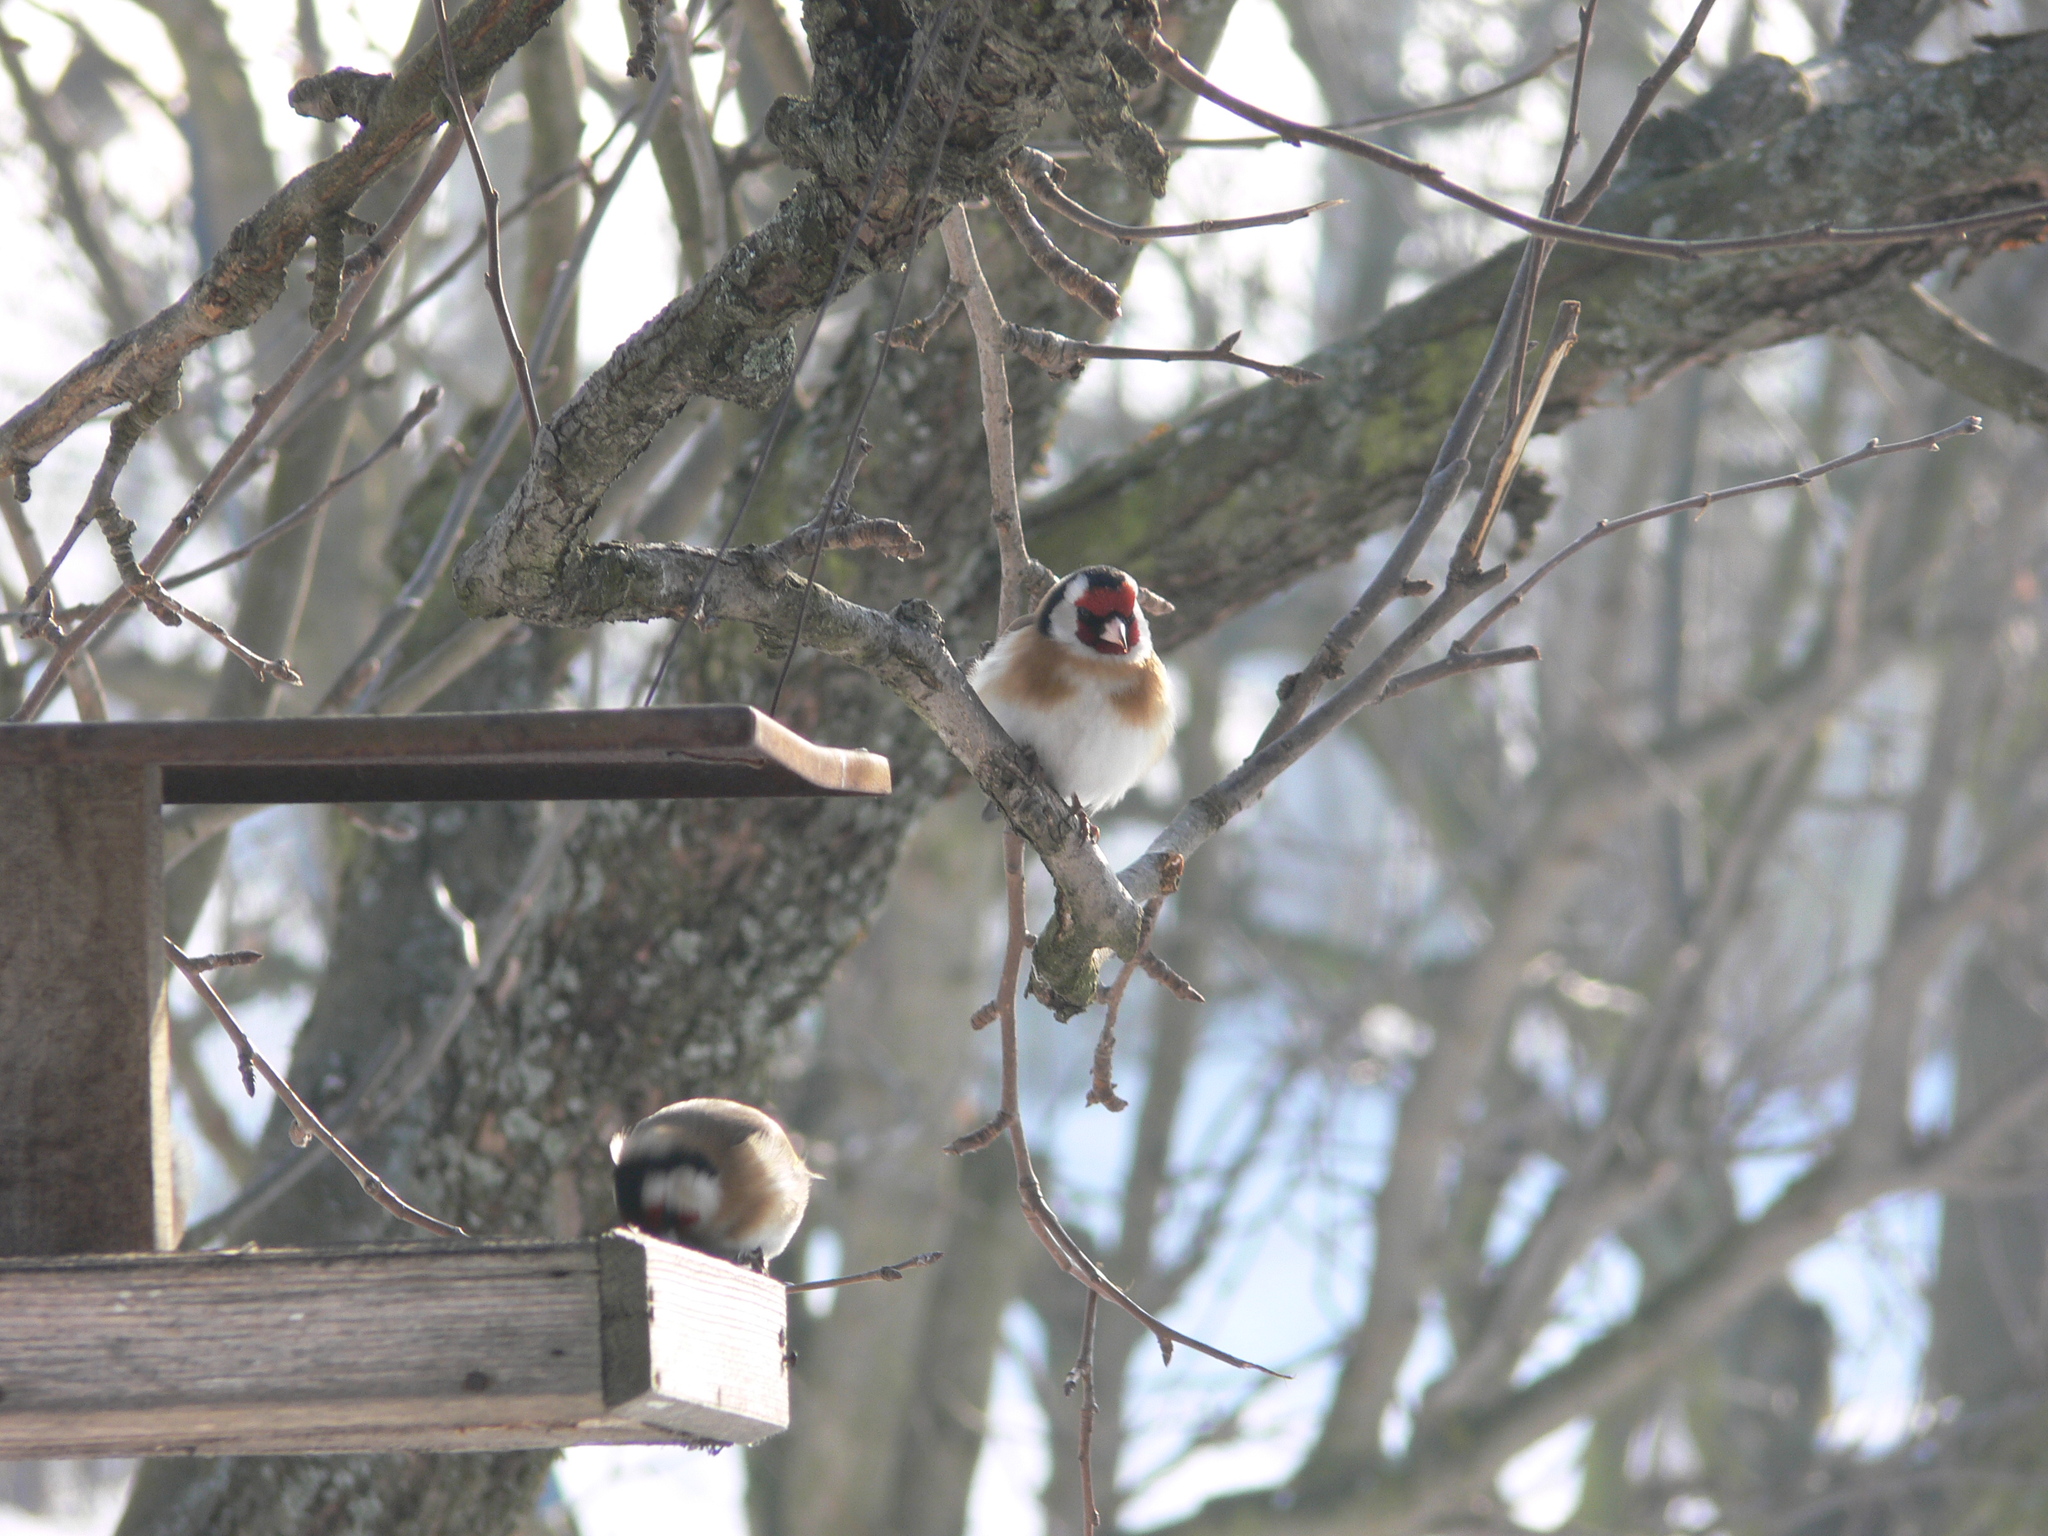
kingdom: Animalia
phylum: Chordata
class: Aves
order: Passeriformes
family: Fringillidae
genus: Carduelis
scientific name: Carduelis carduelis
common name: European goldfinch
